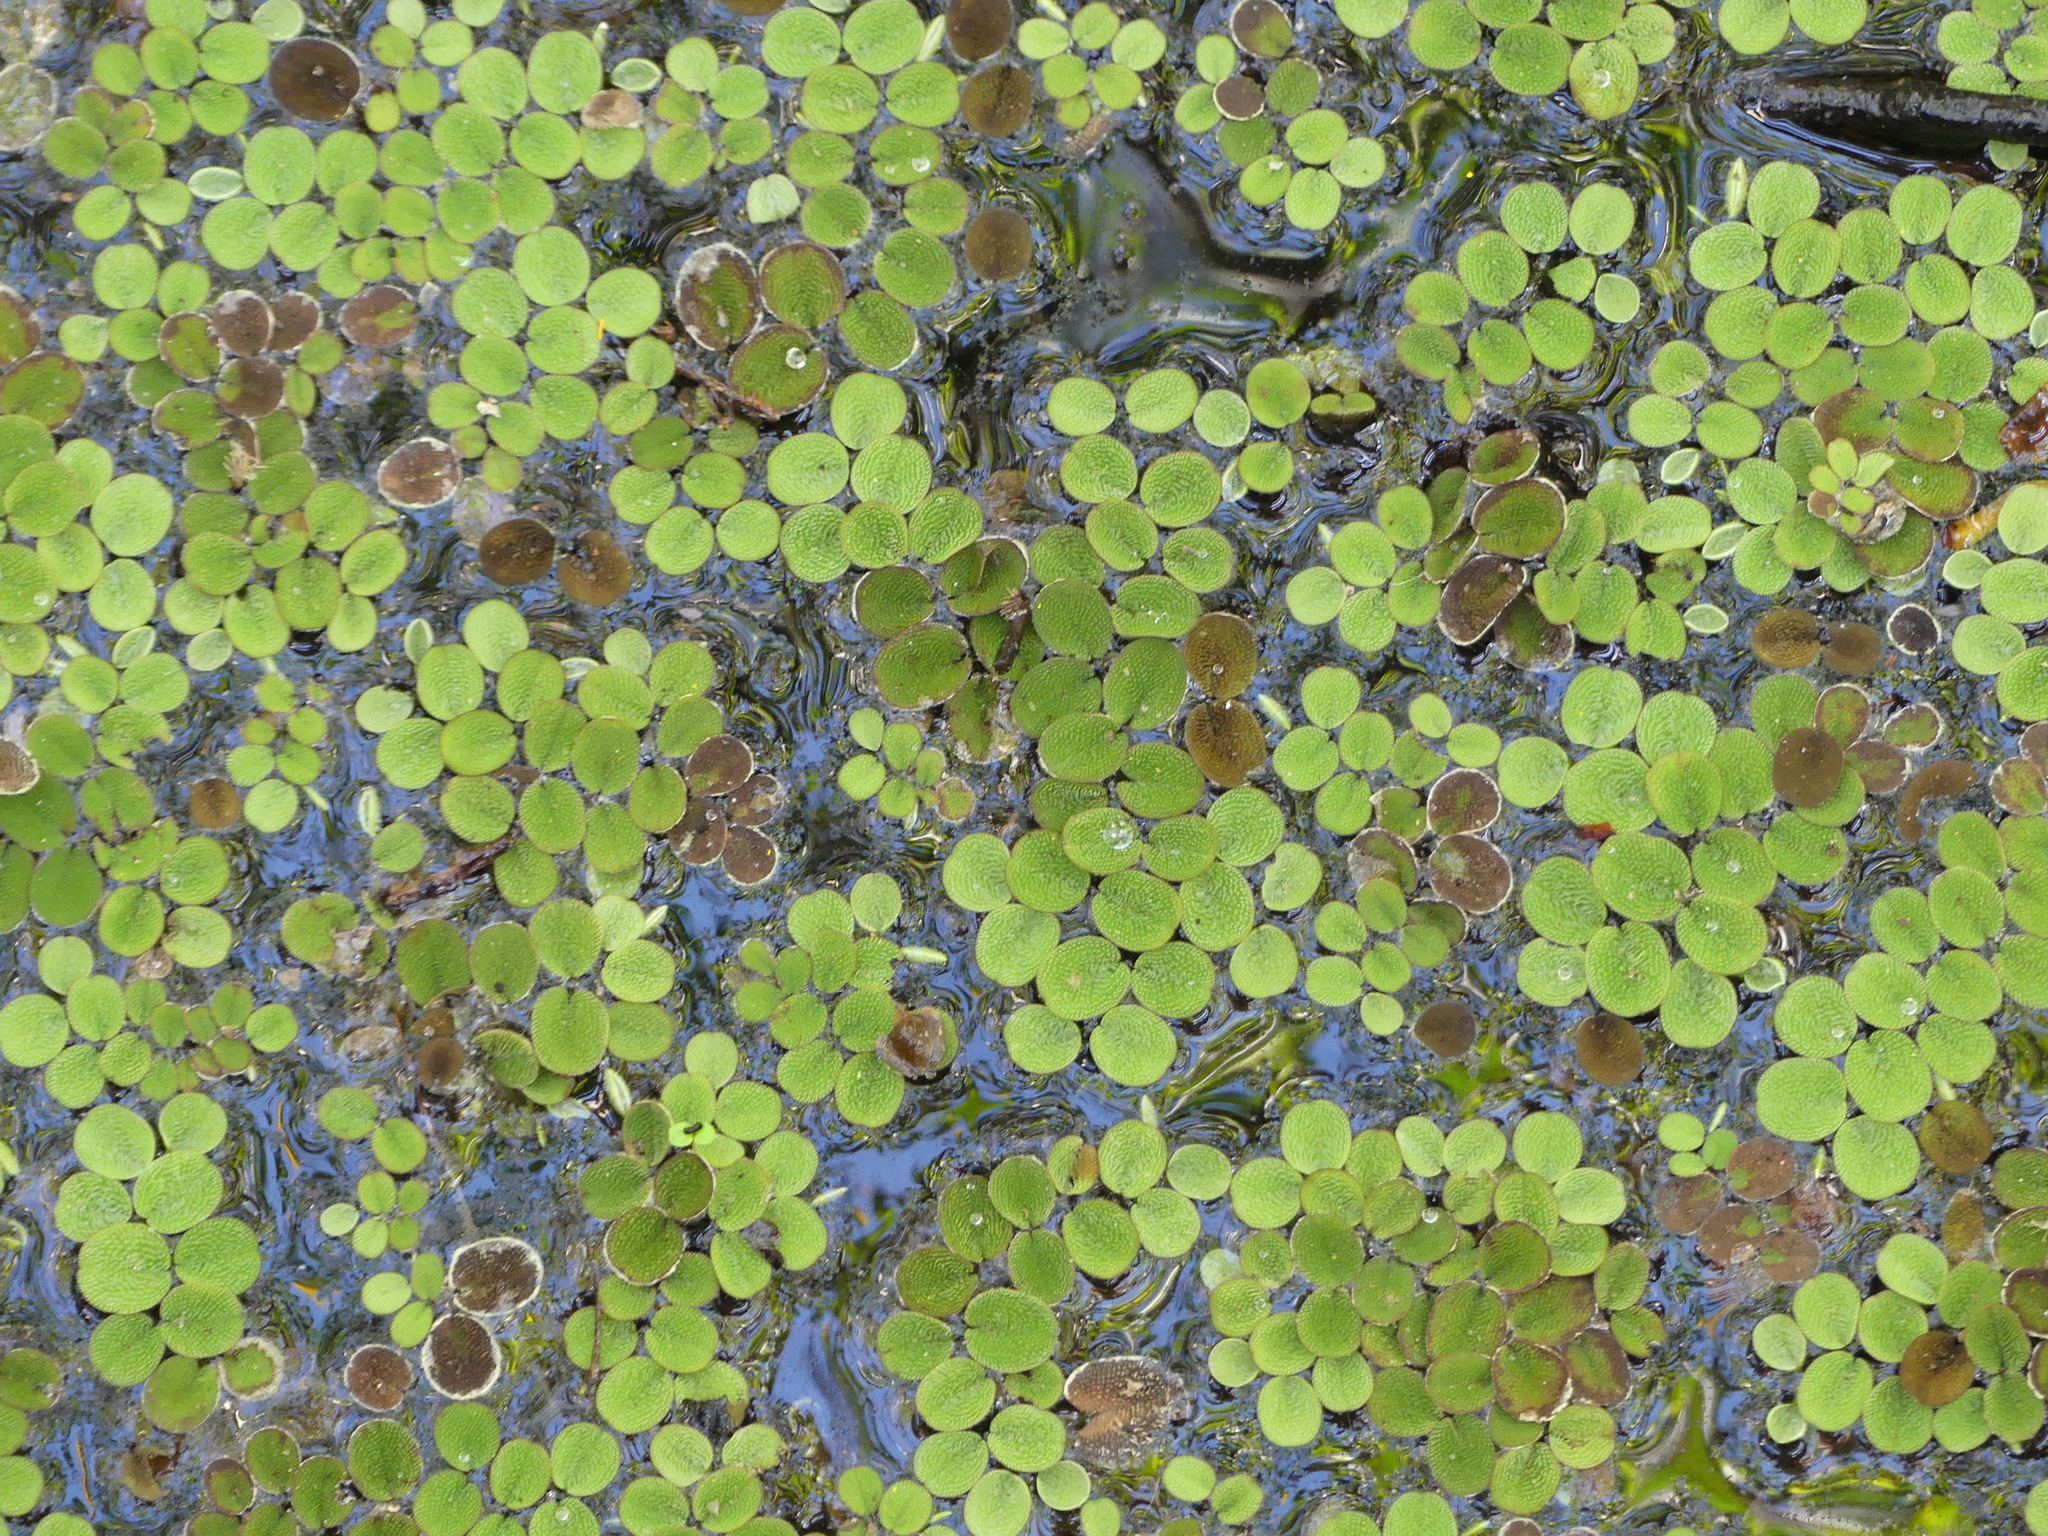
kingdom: Plantae
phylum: Tracheophyta
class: Polypodiopsida
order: Salviniales
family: Salviniaceae
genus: Salvinia
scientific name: Salvinia minima
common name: Water spangles
